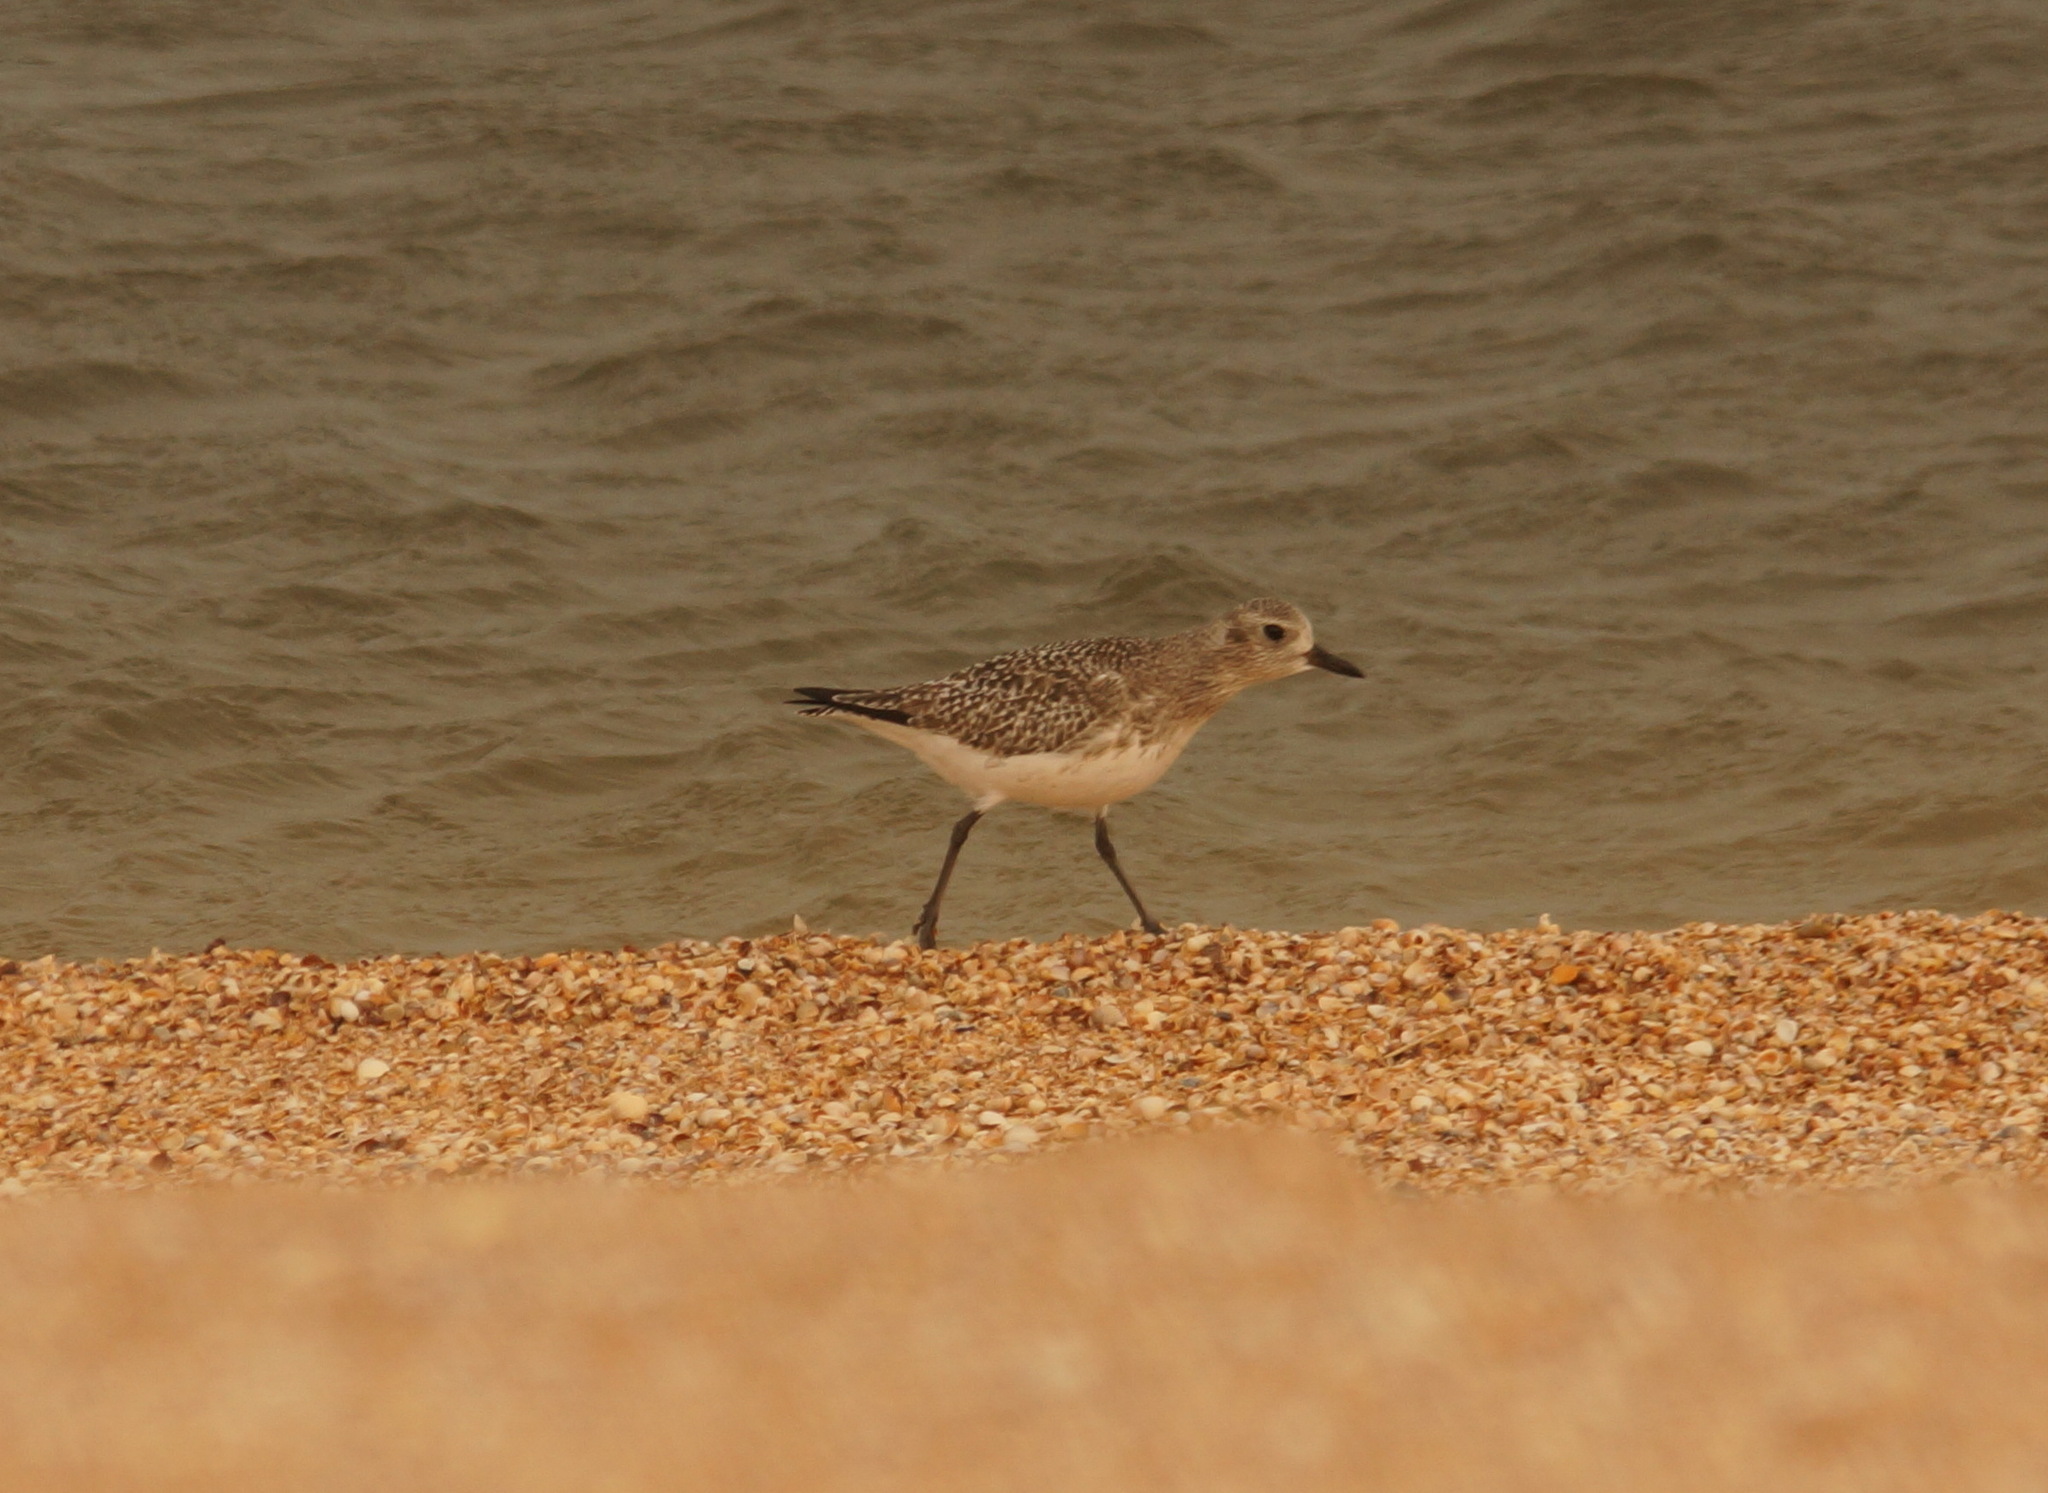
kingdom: Animalia
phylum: Chordata
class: Aves
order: Charadriiformes
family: Charadriidae
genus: Pluvialis
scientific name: Pluvialis squatarola
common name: Grey plover
